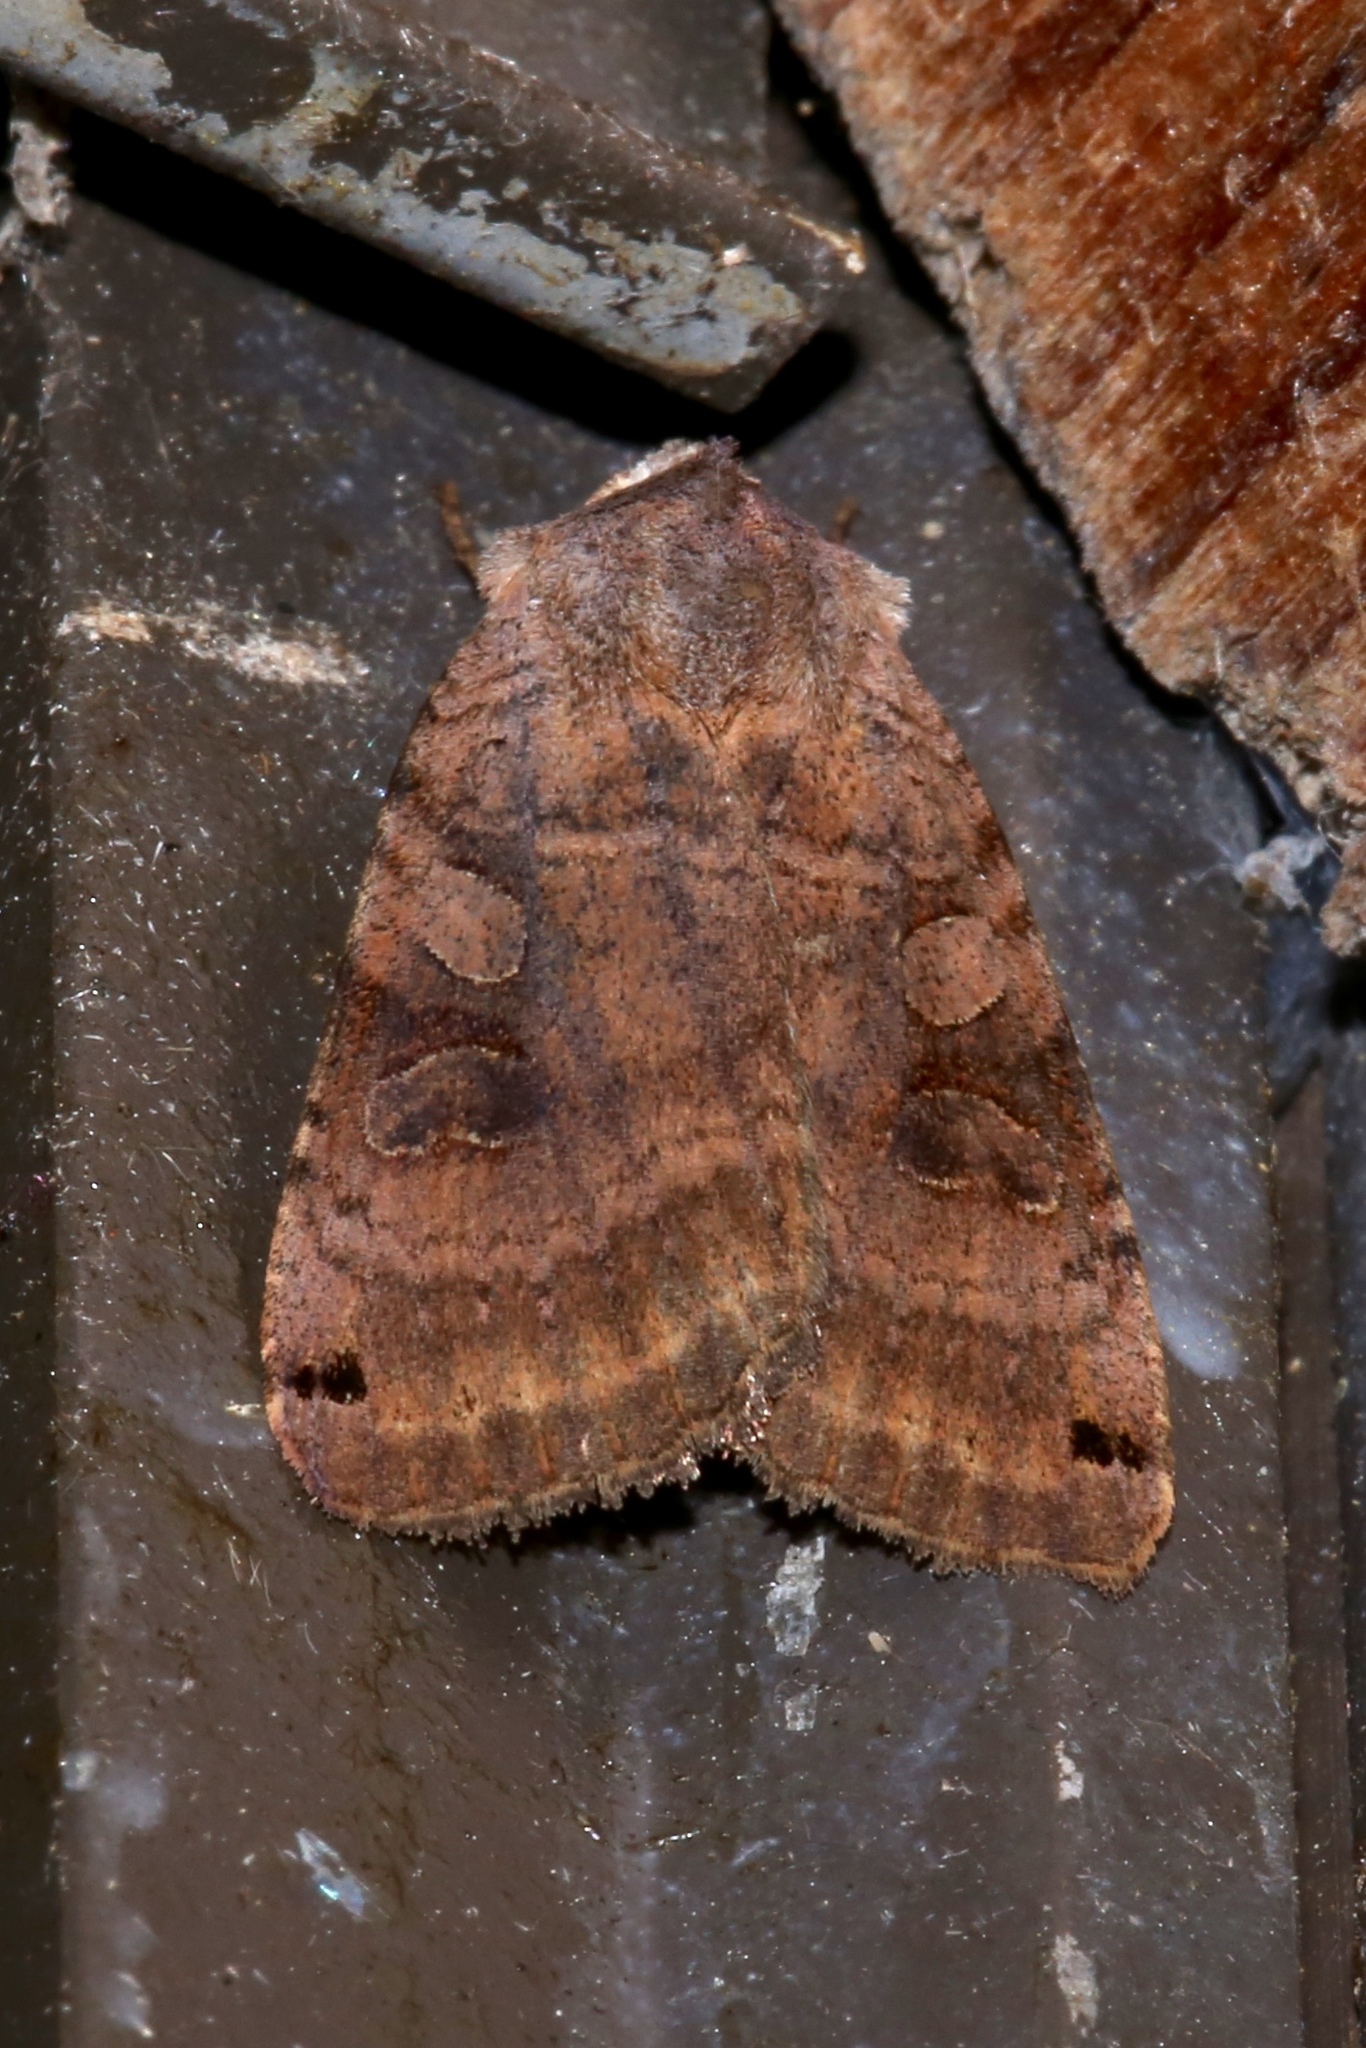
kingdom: Animalia
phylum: Arthropoda
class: Insecta
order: Lepidoptera
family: Noctuidae
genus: Xestia
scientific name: Xestia smithii
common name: Smith's dart
